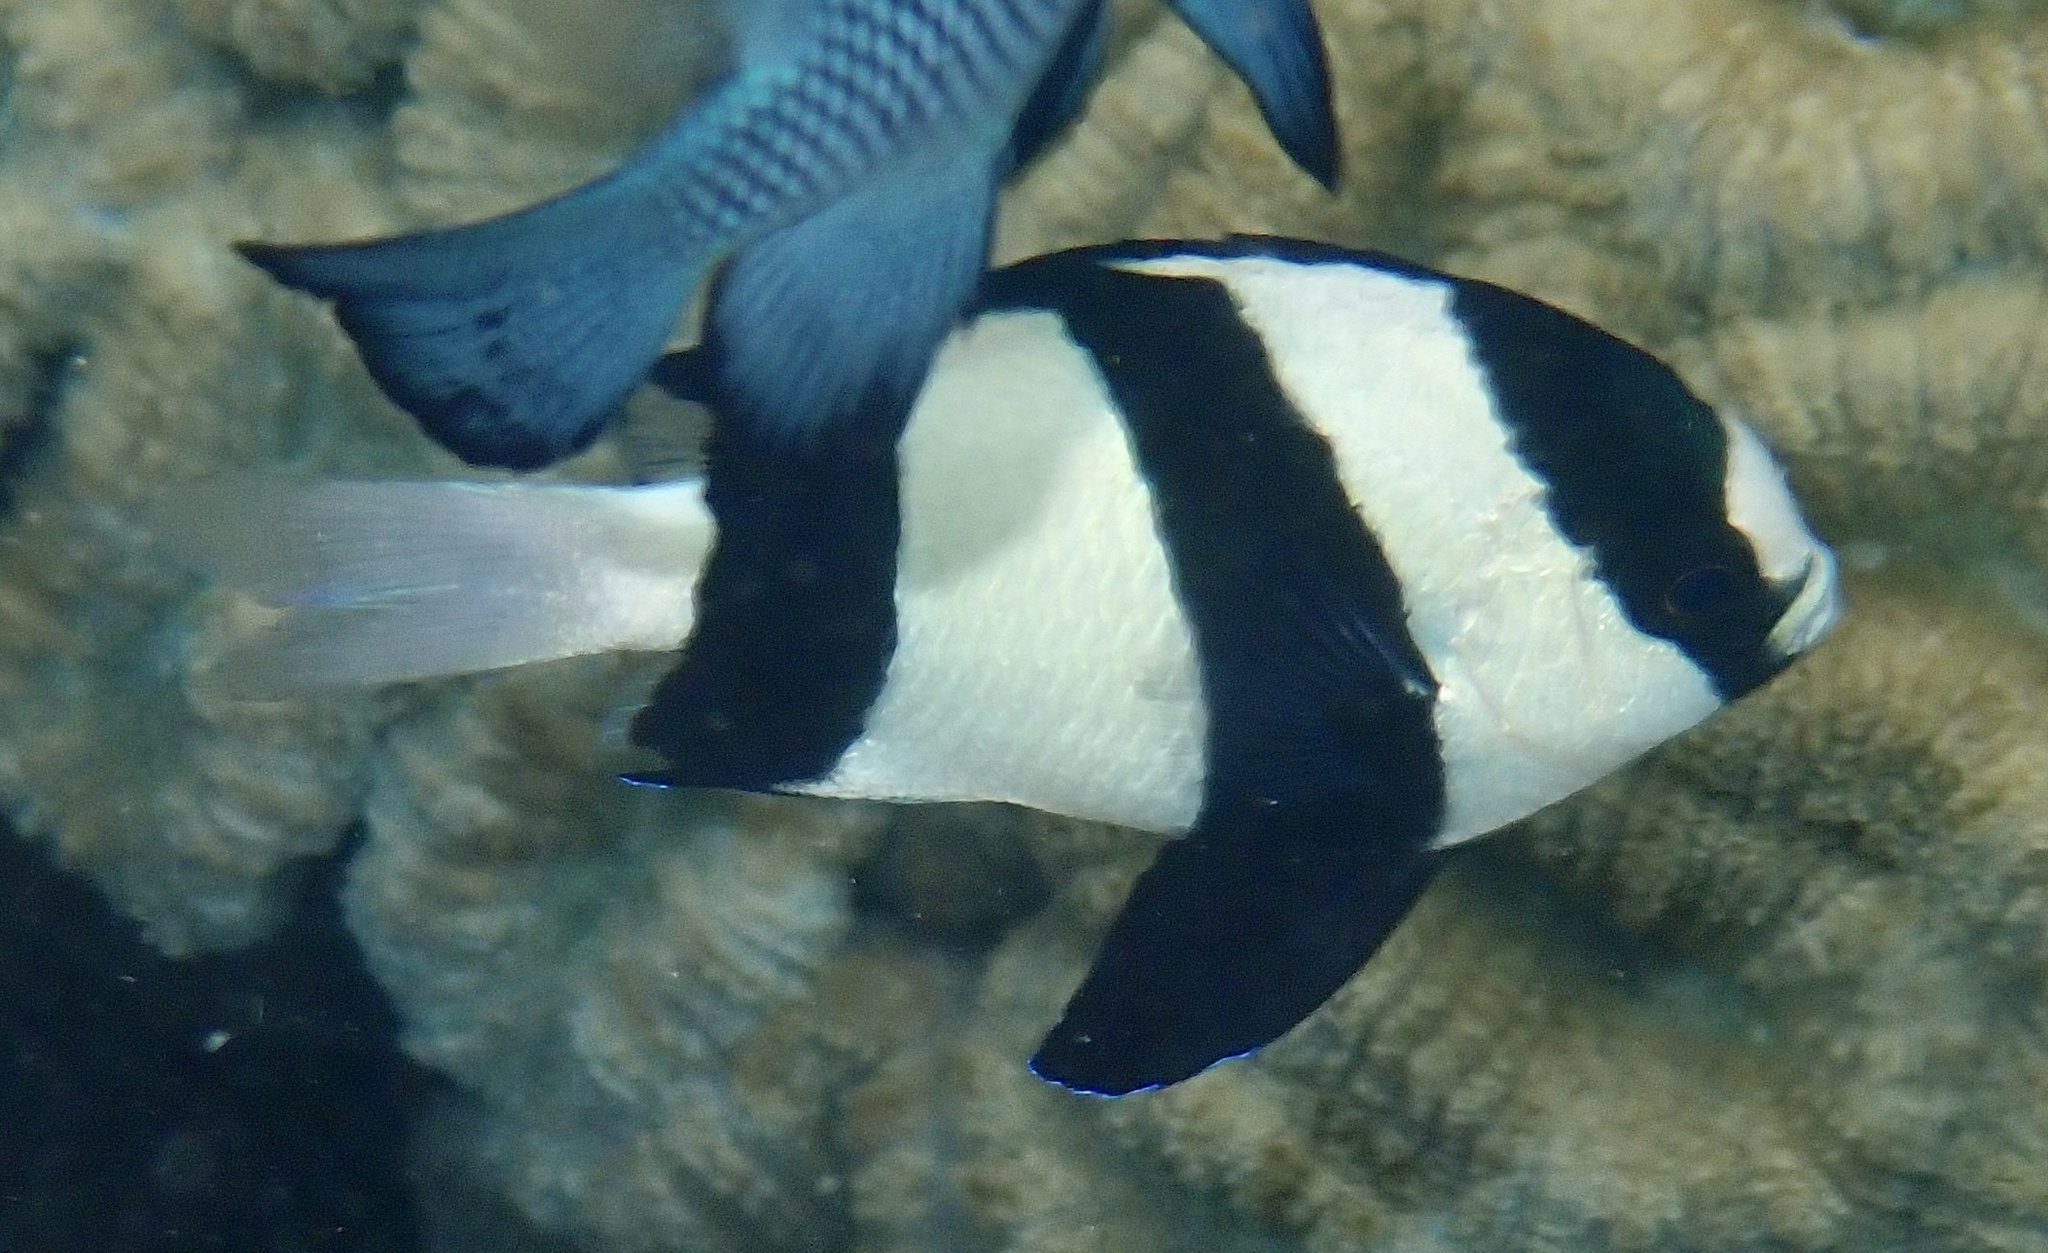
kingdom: Animalia
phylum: Chordata
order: Perciformes
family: Pomacentridae
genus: Dascyllus
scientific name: Dascyllus aruanus
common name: Humbug dascyllus
